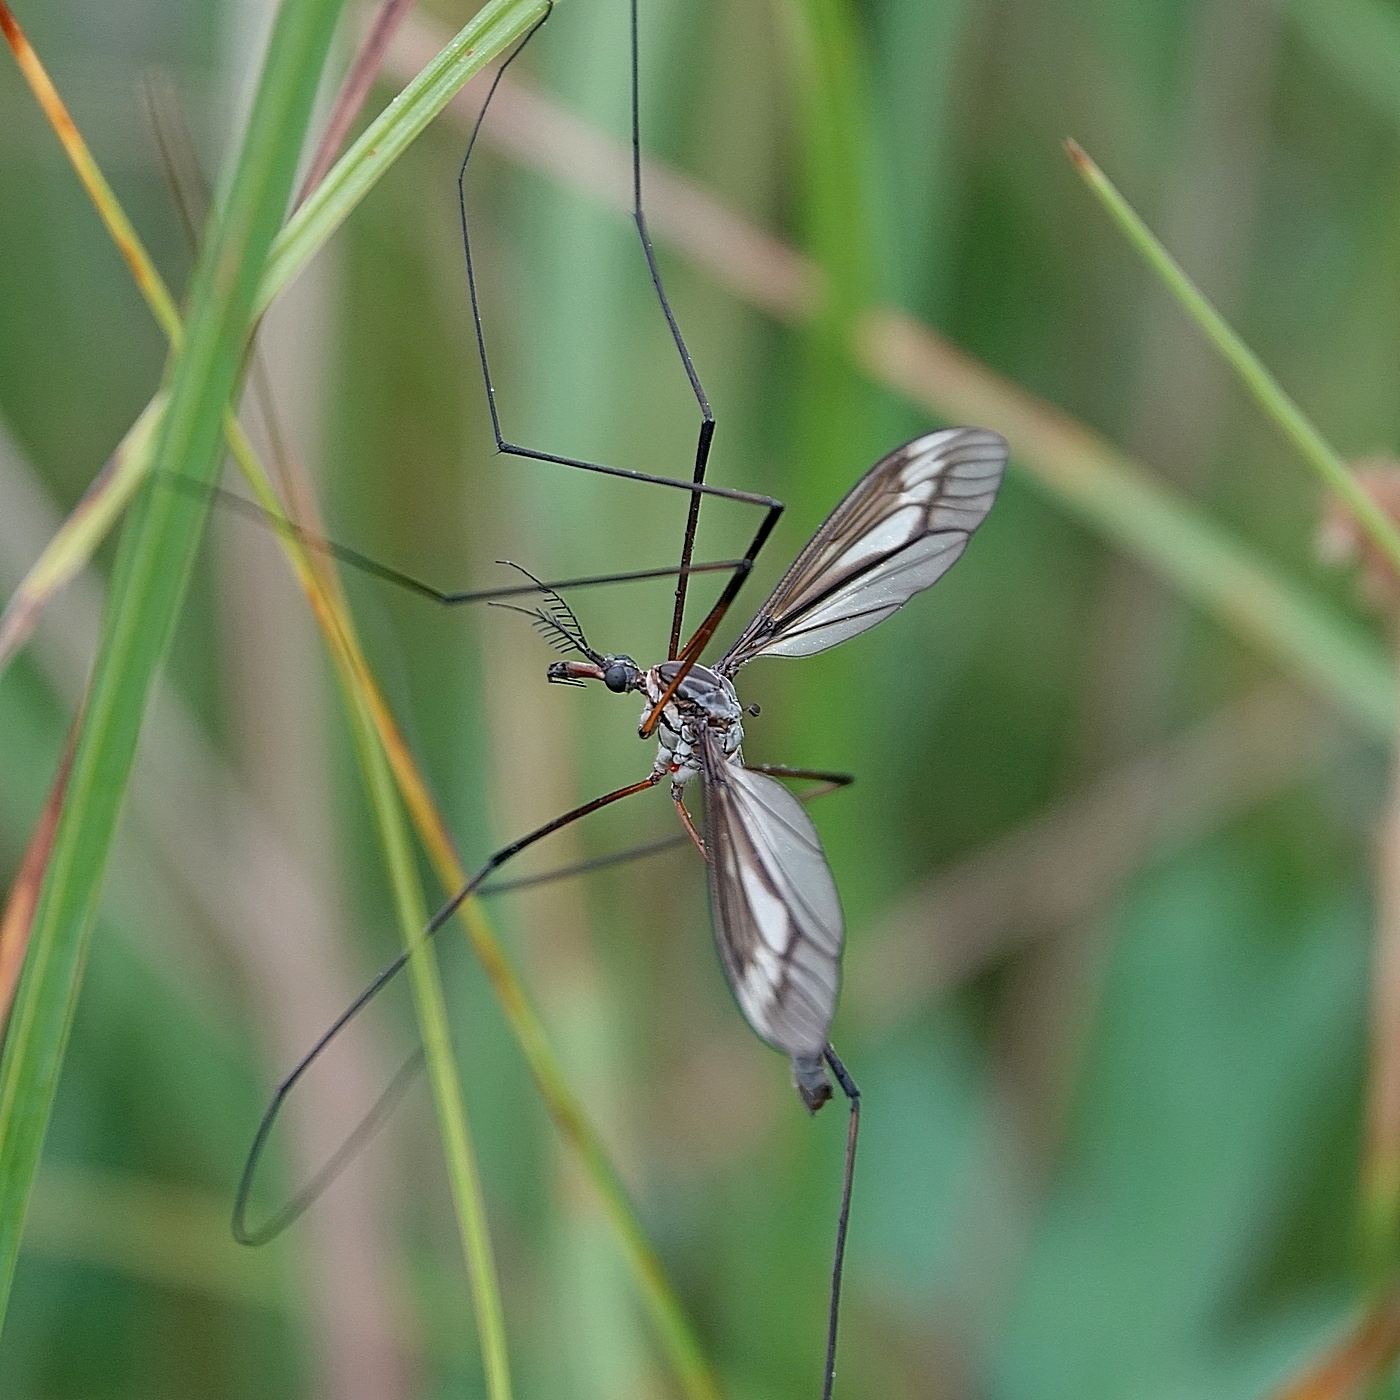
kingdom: Animalia
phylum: Arthropoda
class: Insecta
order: Diptera
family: Tipulidae
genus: Ptilogyna
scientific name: Ptilogyna gracilis
